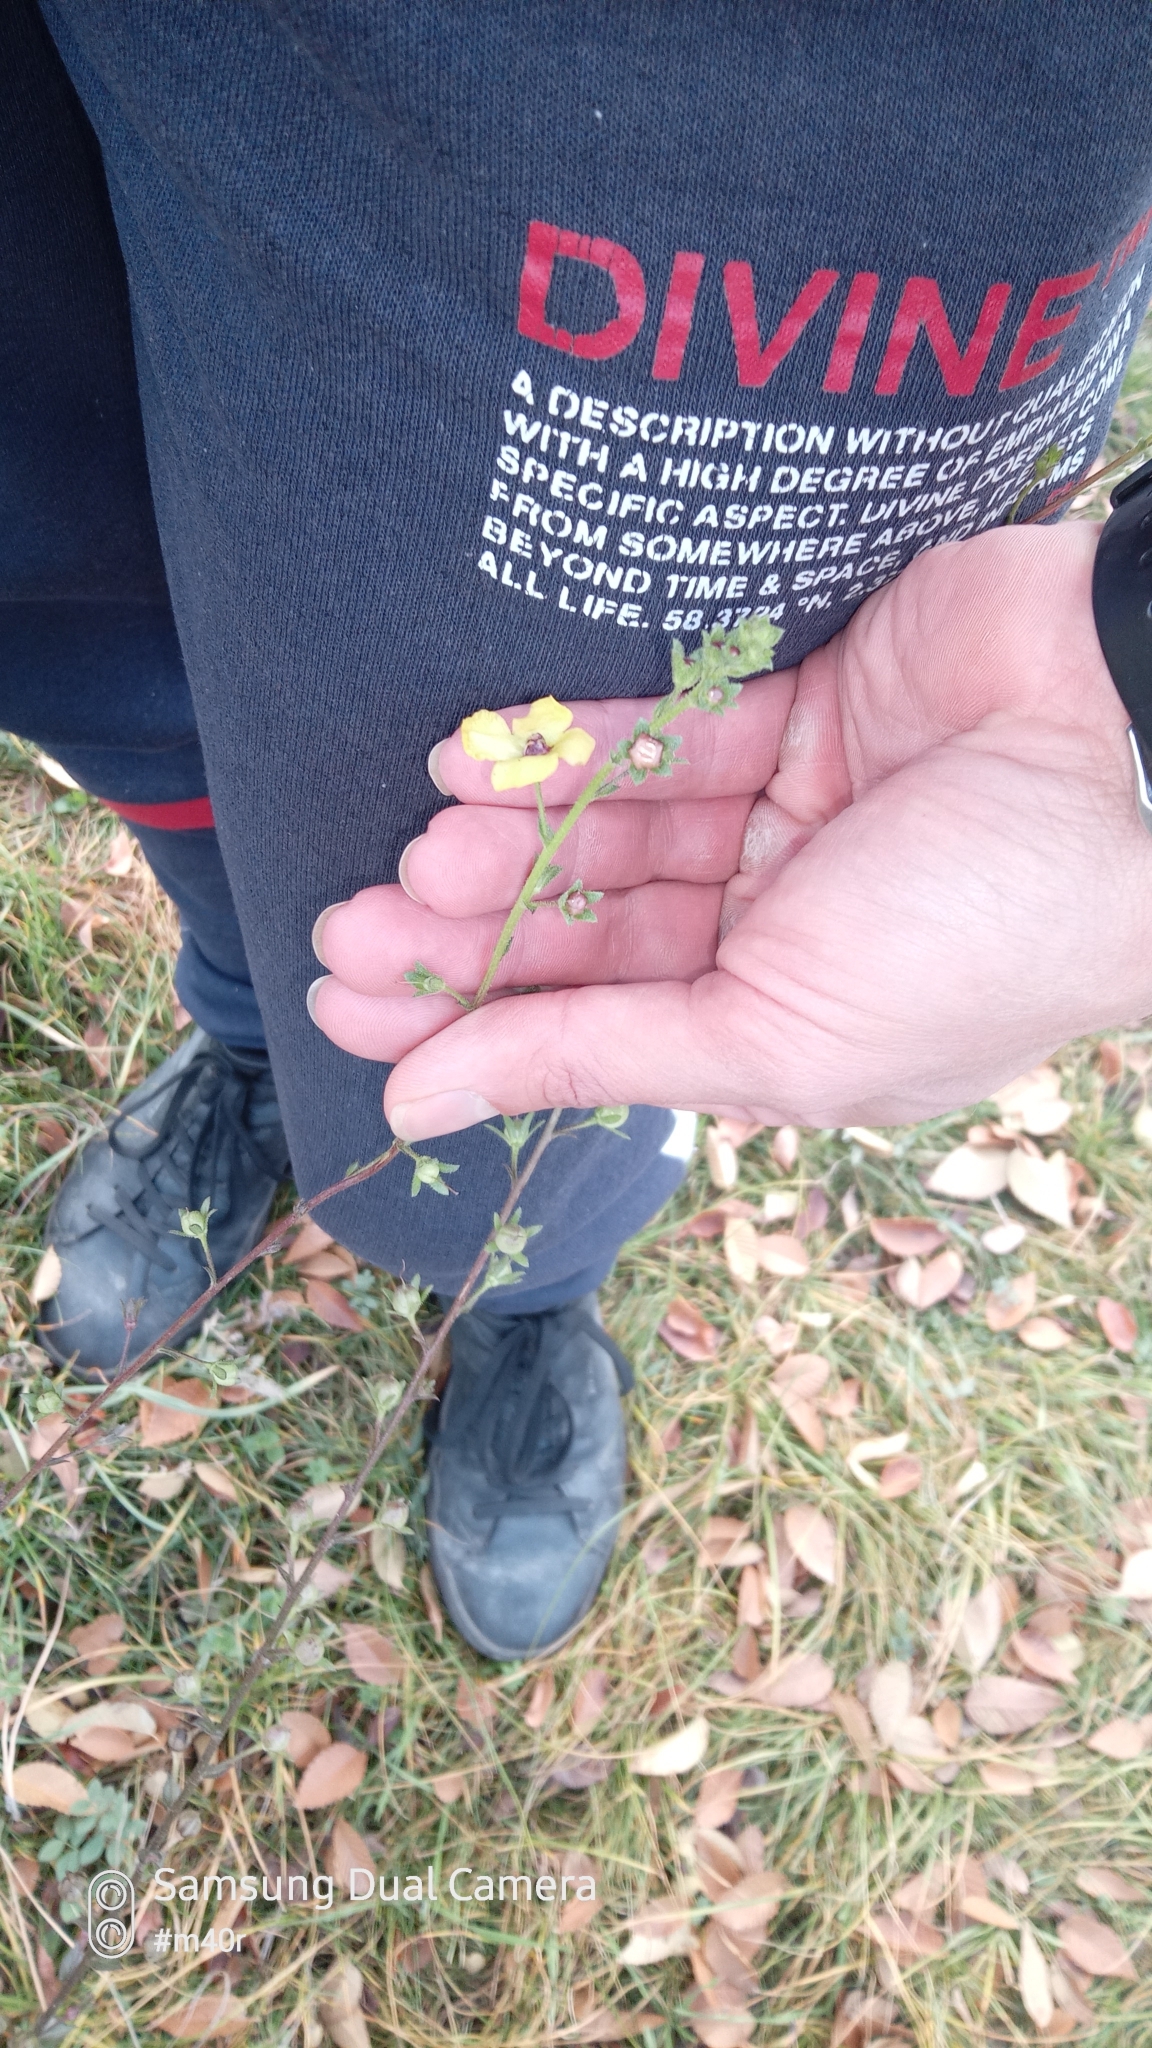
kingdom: Plantae
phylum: Tracheophyta
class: Magnoliopsida
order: Lamiales
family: Scrophulariaceae
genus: Verbascum
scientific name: Verbascum blattaria
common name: Moth mullein
